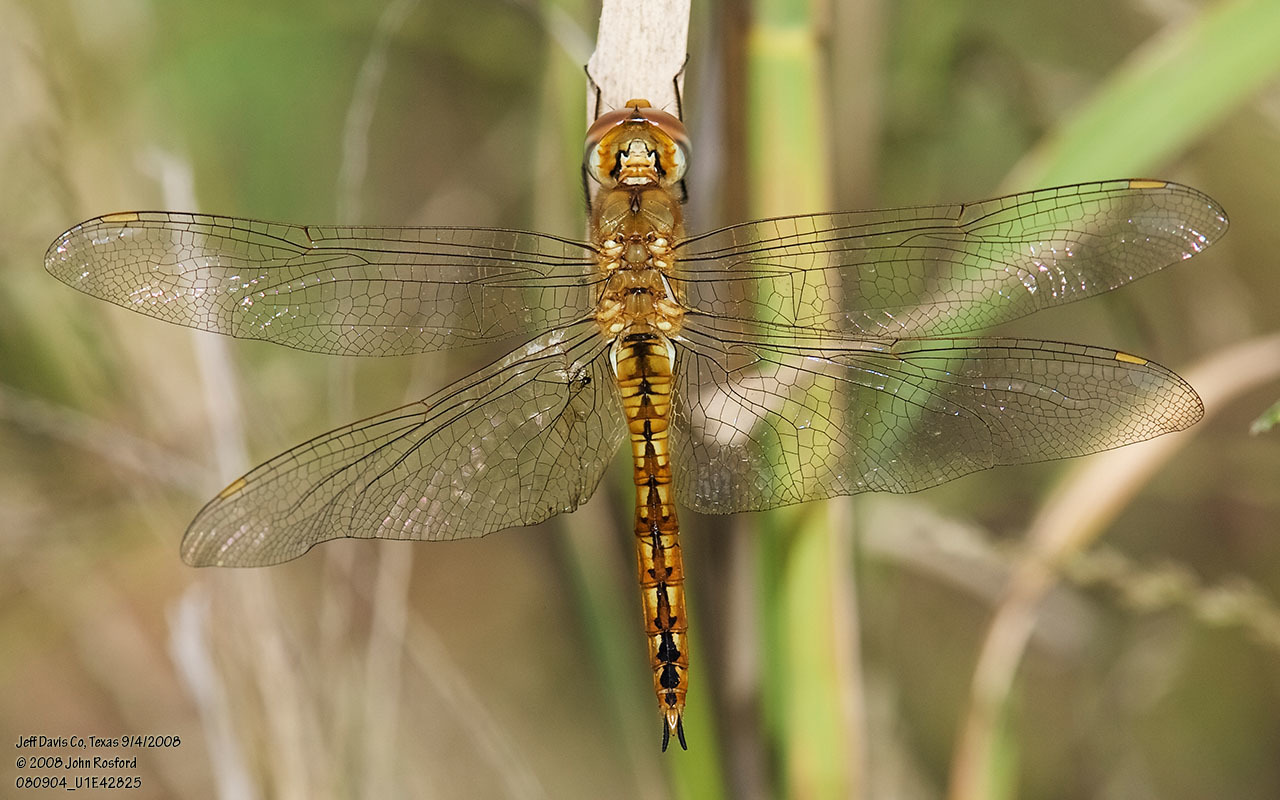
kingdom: Animalia
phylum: Arthropoda
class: Insecta
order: Odonata
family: Libellulidae
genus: Pantala
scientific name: Pantala flavescens
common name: Wandering glider
